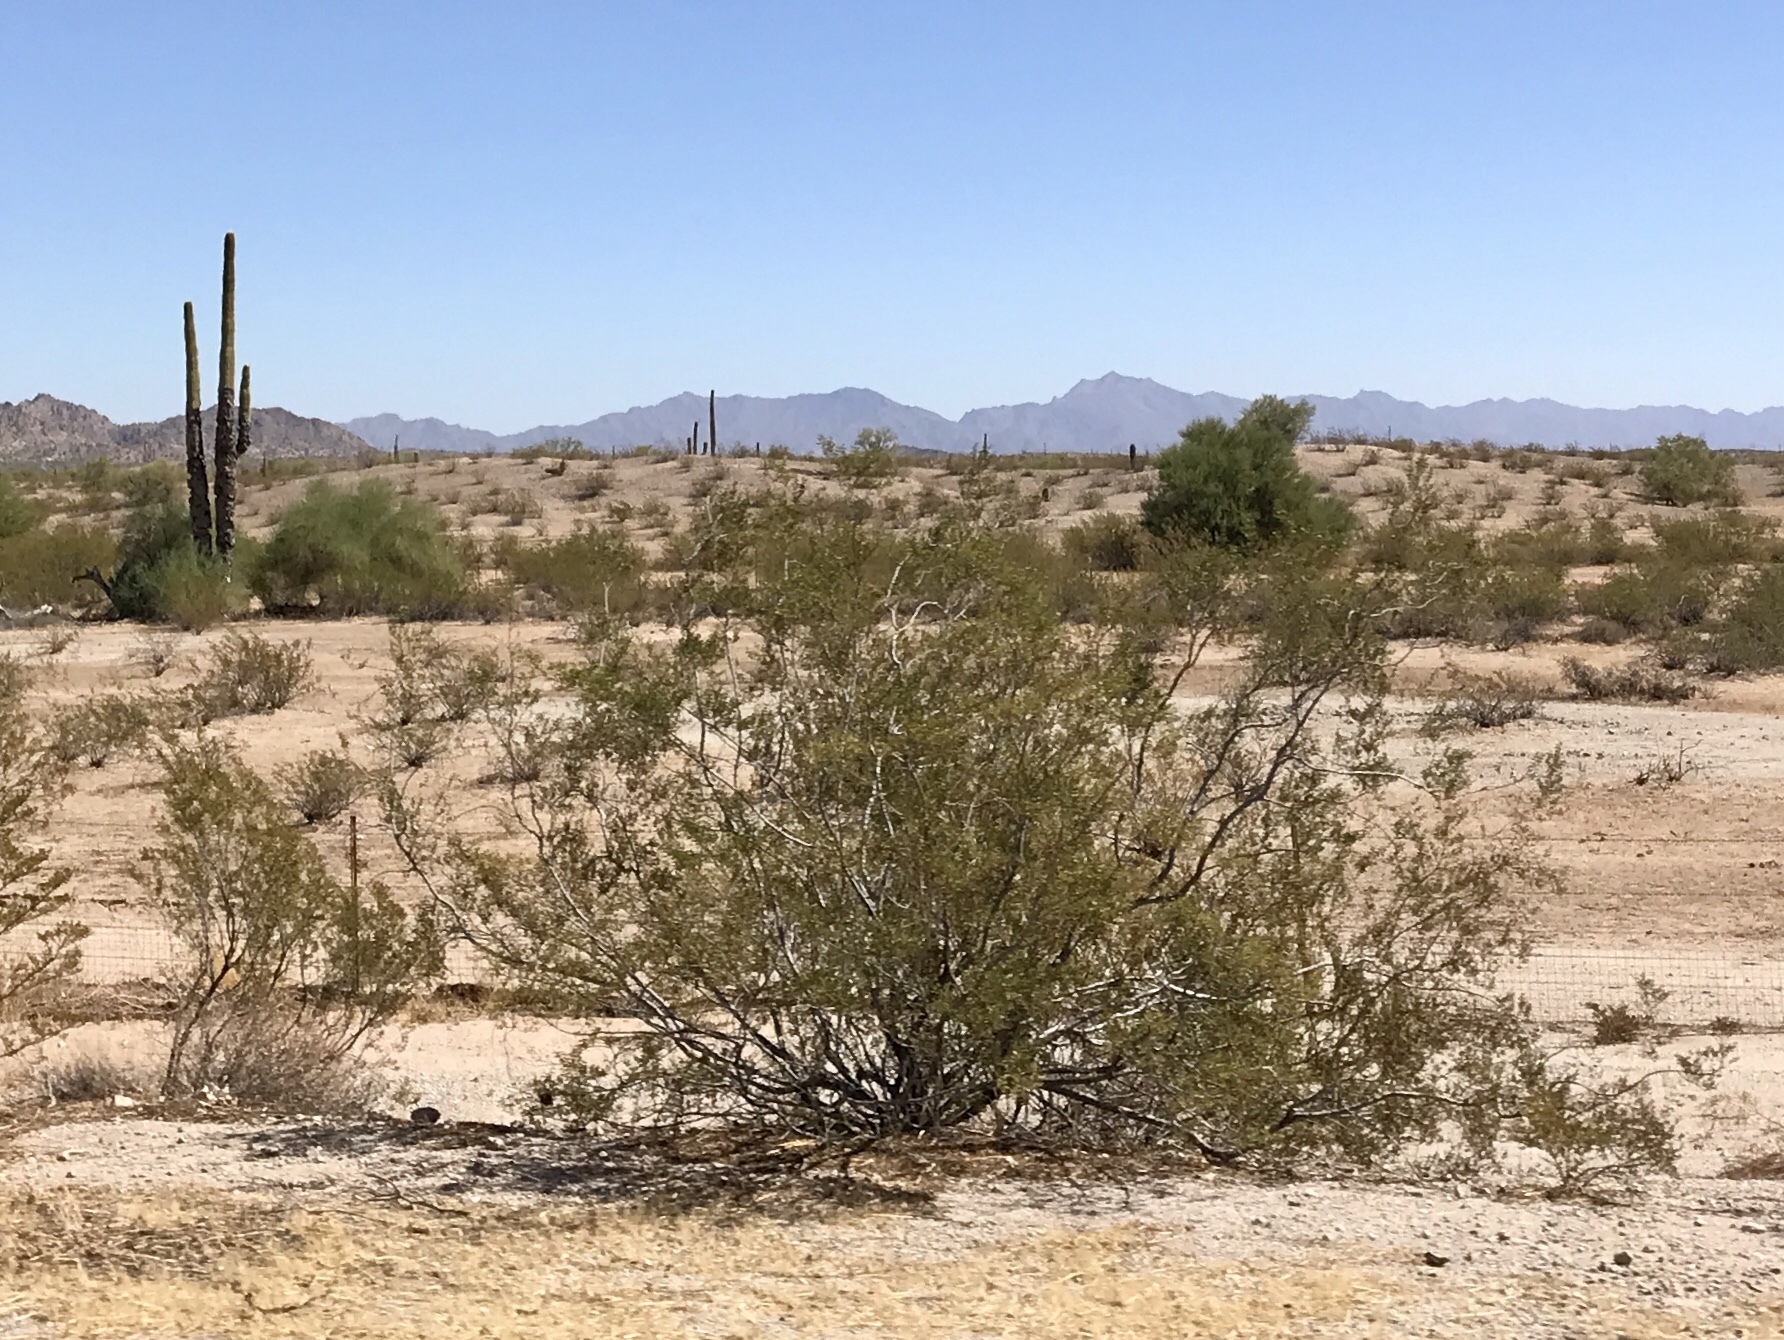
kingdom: Plantae
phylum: Tracheophyta
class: Magnoliopsida
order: Zygophyllales
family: Zygophyllaceae
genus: Larrea
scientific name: Larrea tridentata
